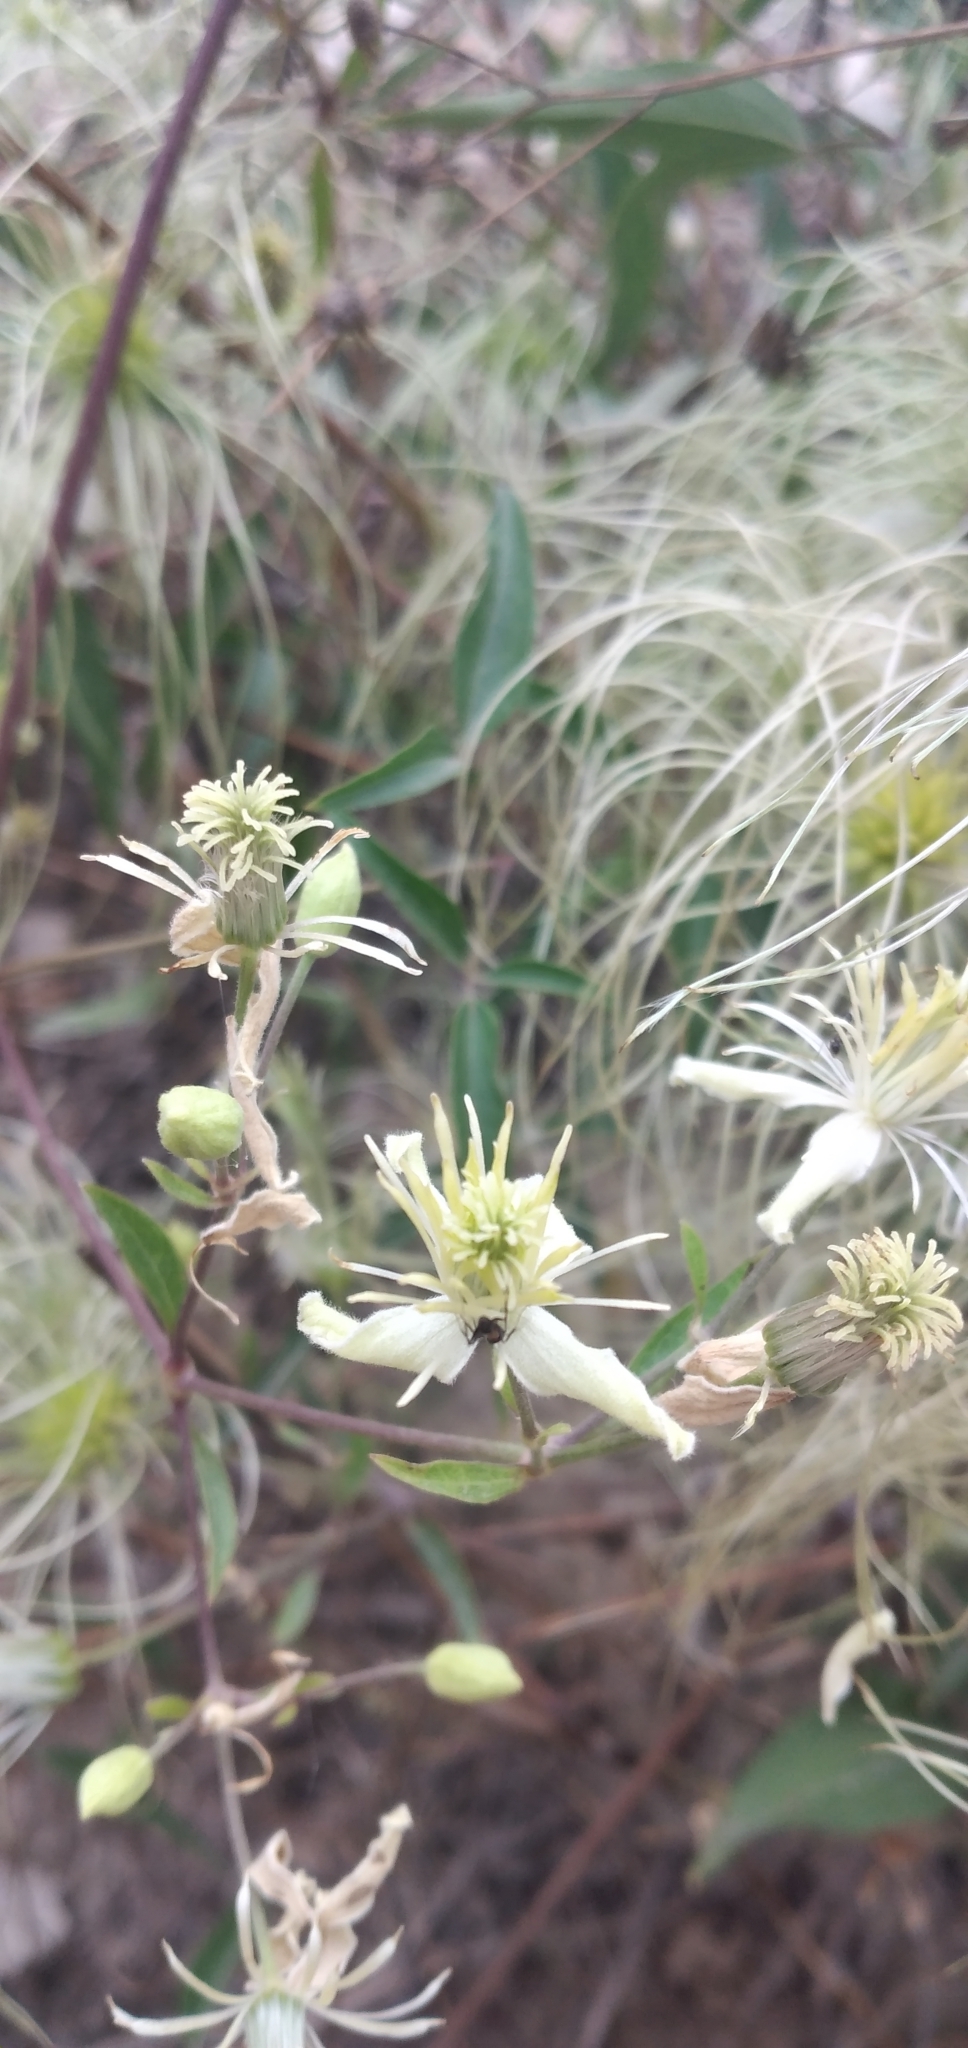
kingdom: Plantae
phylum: Tracheophyta
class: Magnoliopsida
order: Ranunculales
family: Ranunculaceae
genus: Clematis
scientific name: Clematis montevidensis
